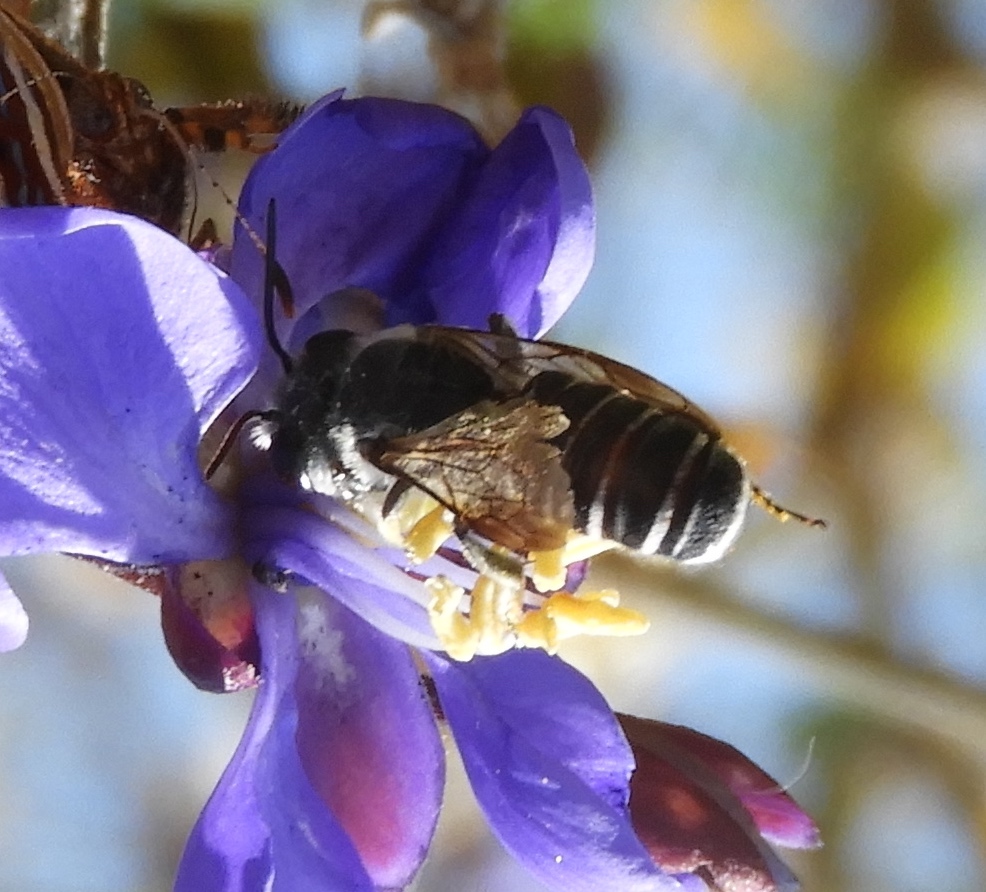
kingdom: Animalia
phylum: Arthropoda
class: Insecta
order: Hymenoptera
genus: Chelostomoides
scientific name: Chelostomoides
